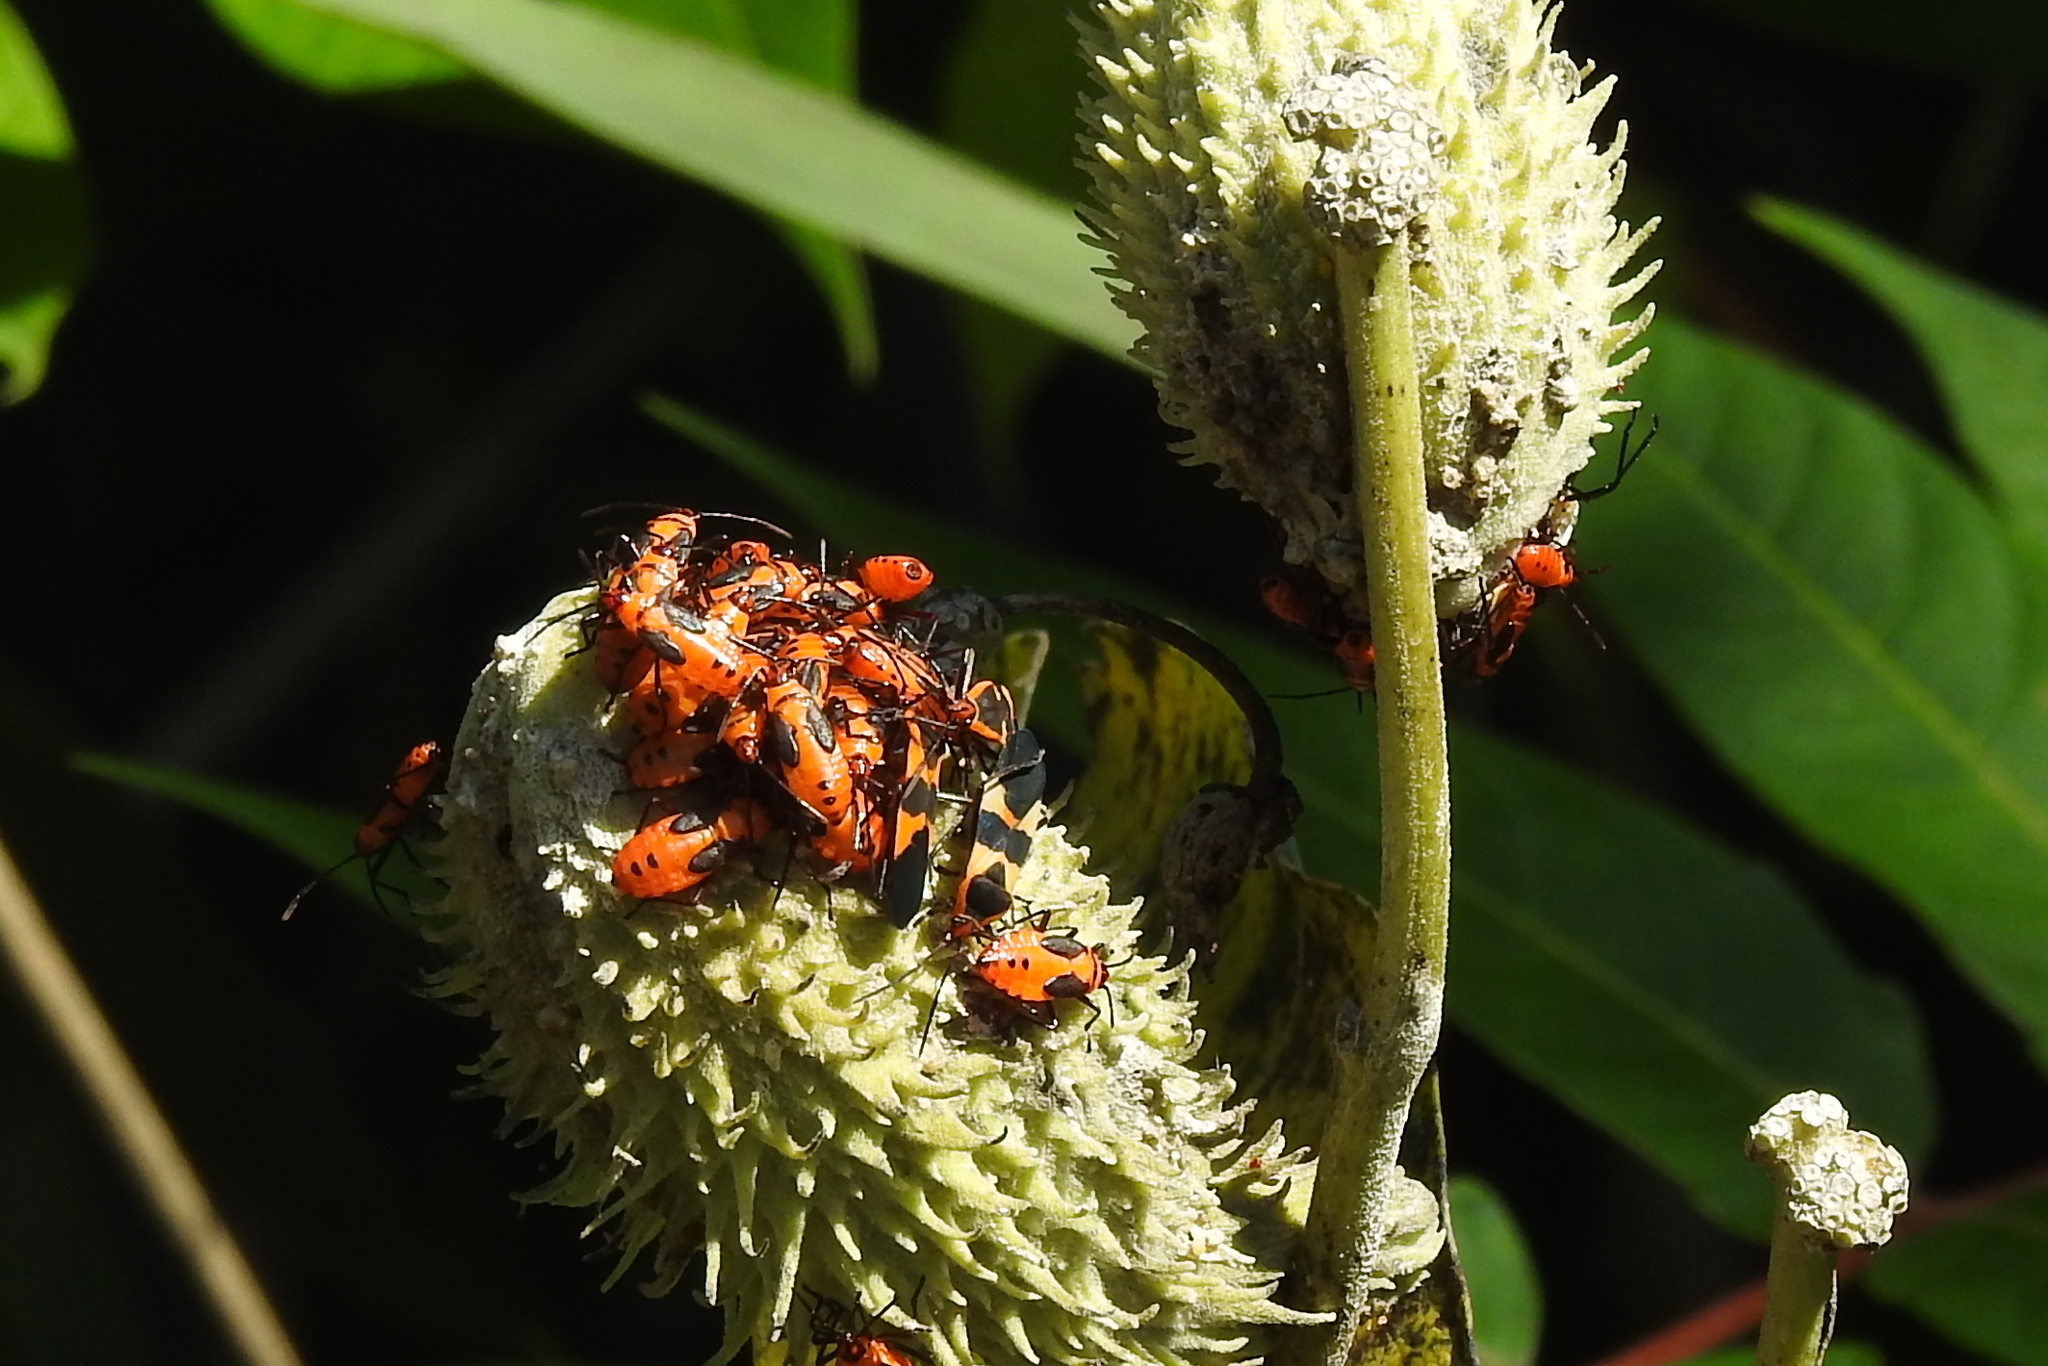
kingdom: Animalia
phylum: Arthropoda
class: Insecta
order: Hemiptera
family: Lygaeidae
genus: Oncopeltus
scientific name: Oncopeltus fasciatus
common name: Large milkweed bug
